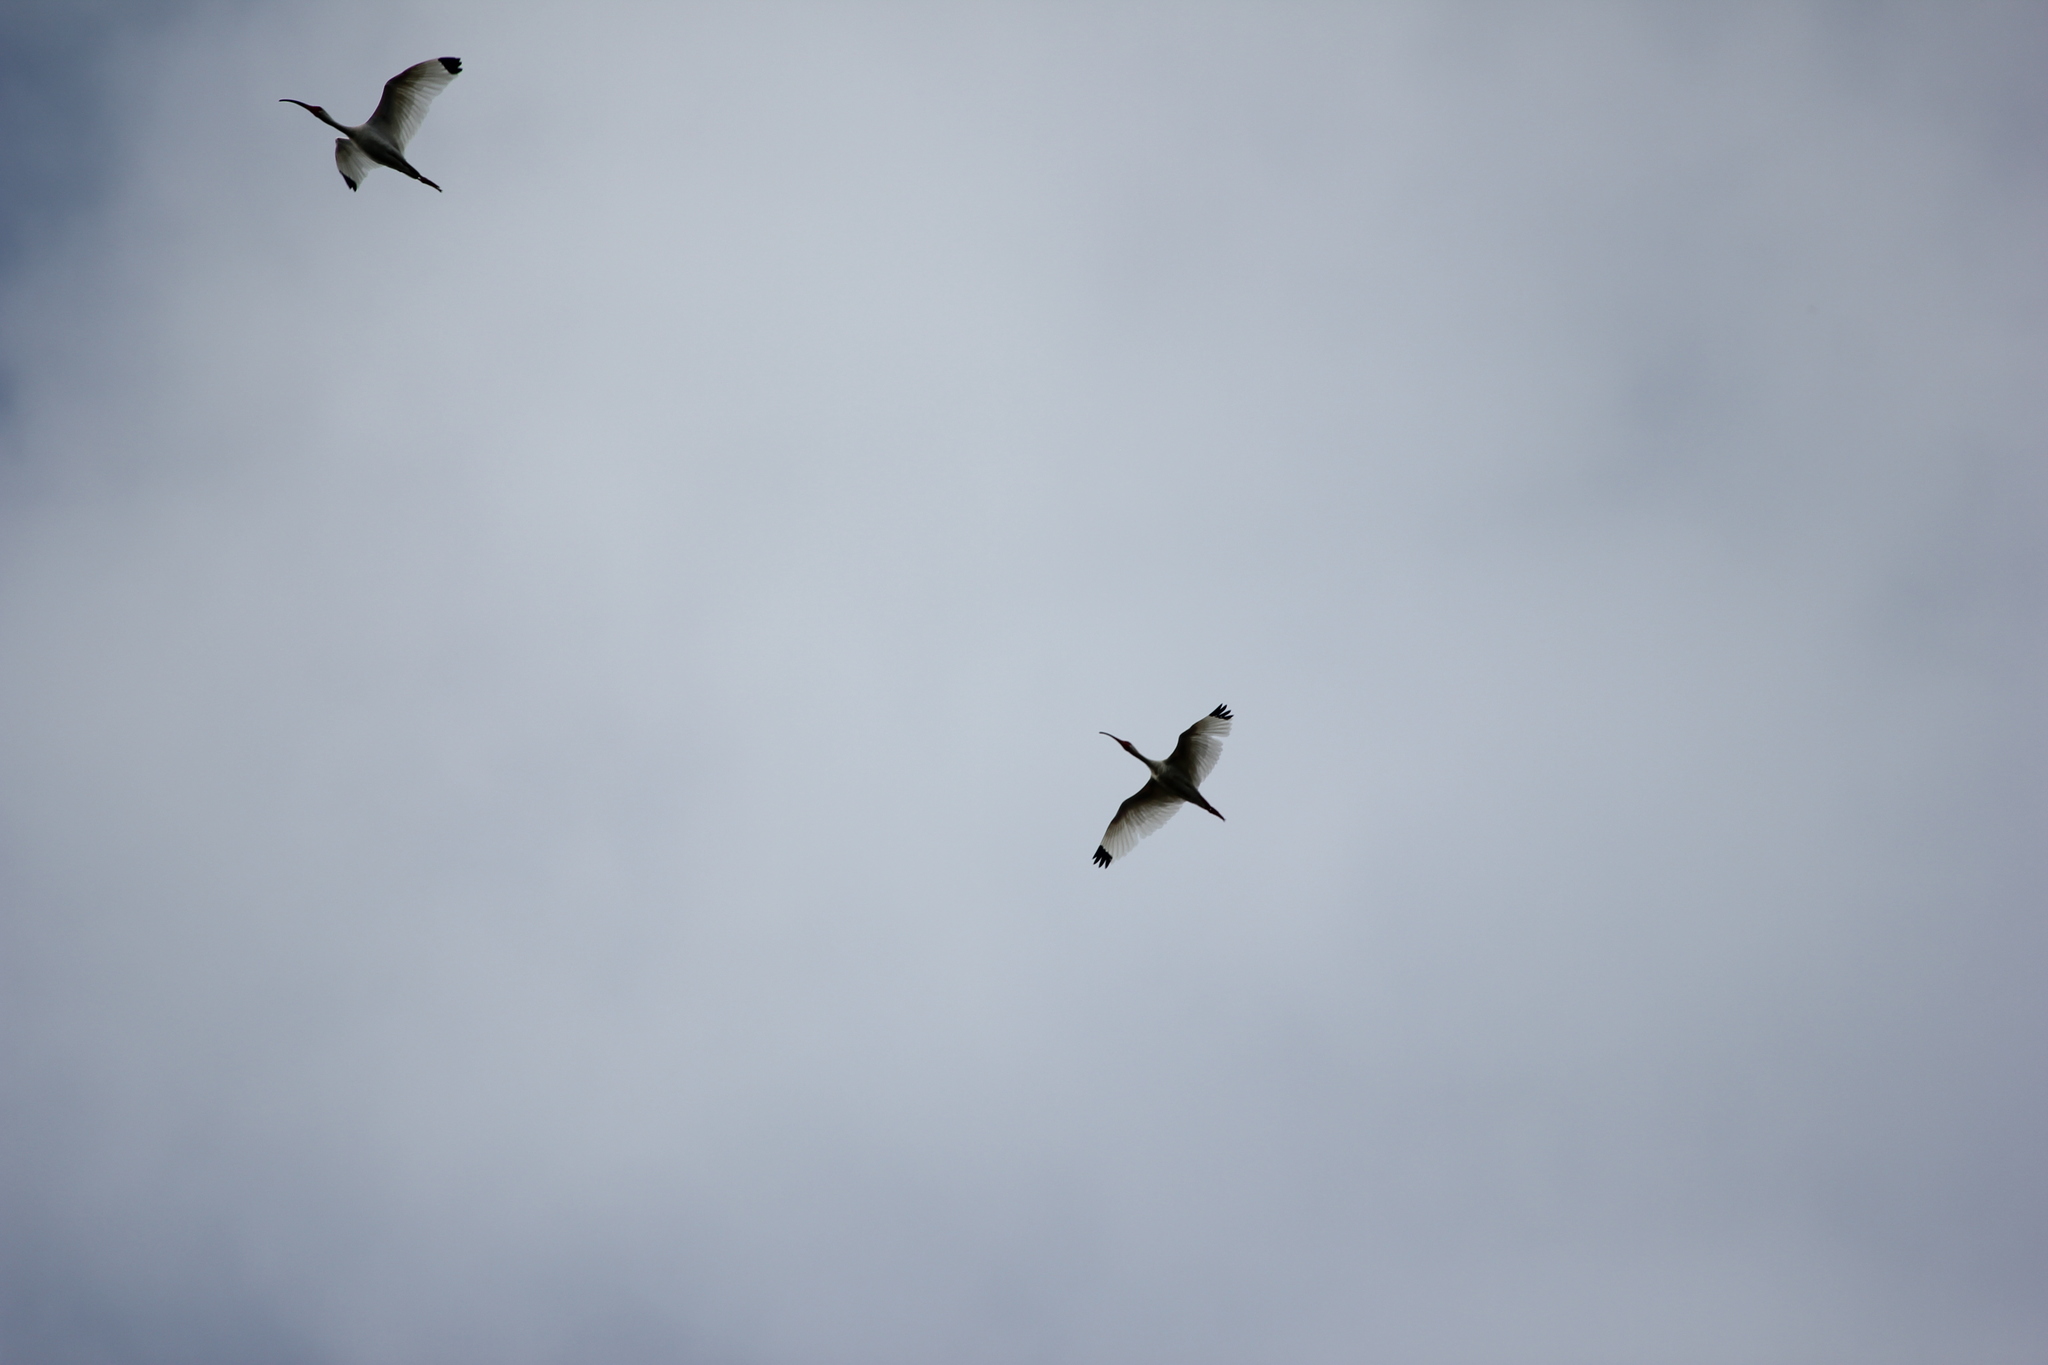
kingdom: Animalia
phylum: Chordata
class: Aves
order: Pelecaniformes
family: Threskiornithidae
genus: Eudocimus
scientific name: Eudocimus albus
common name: White ibis
